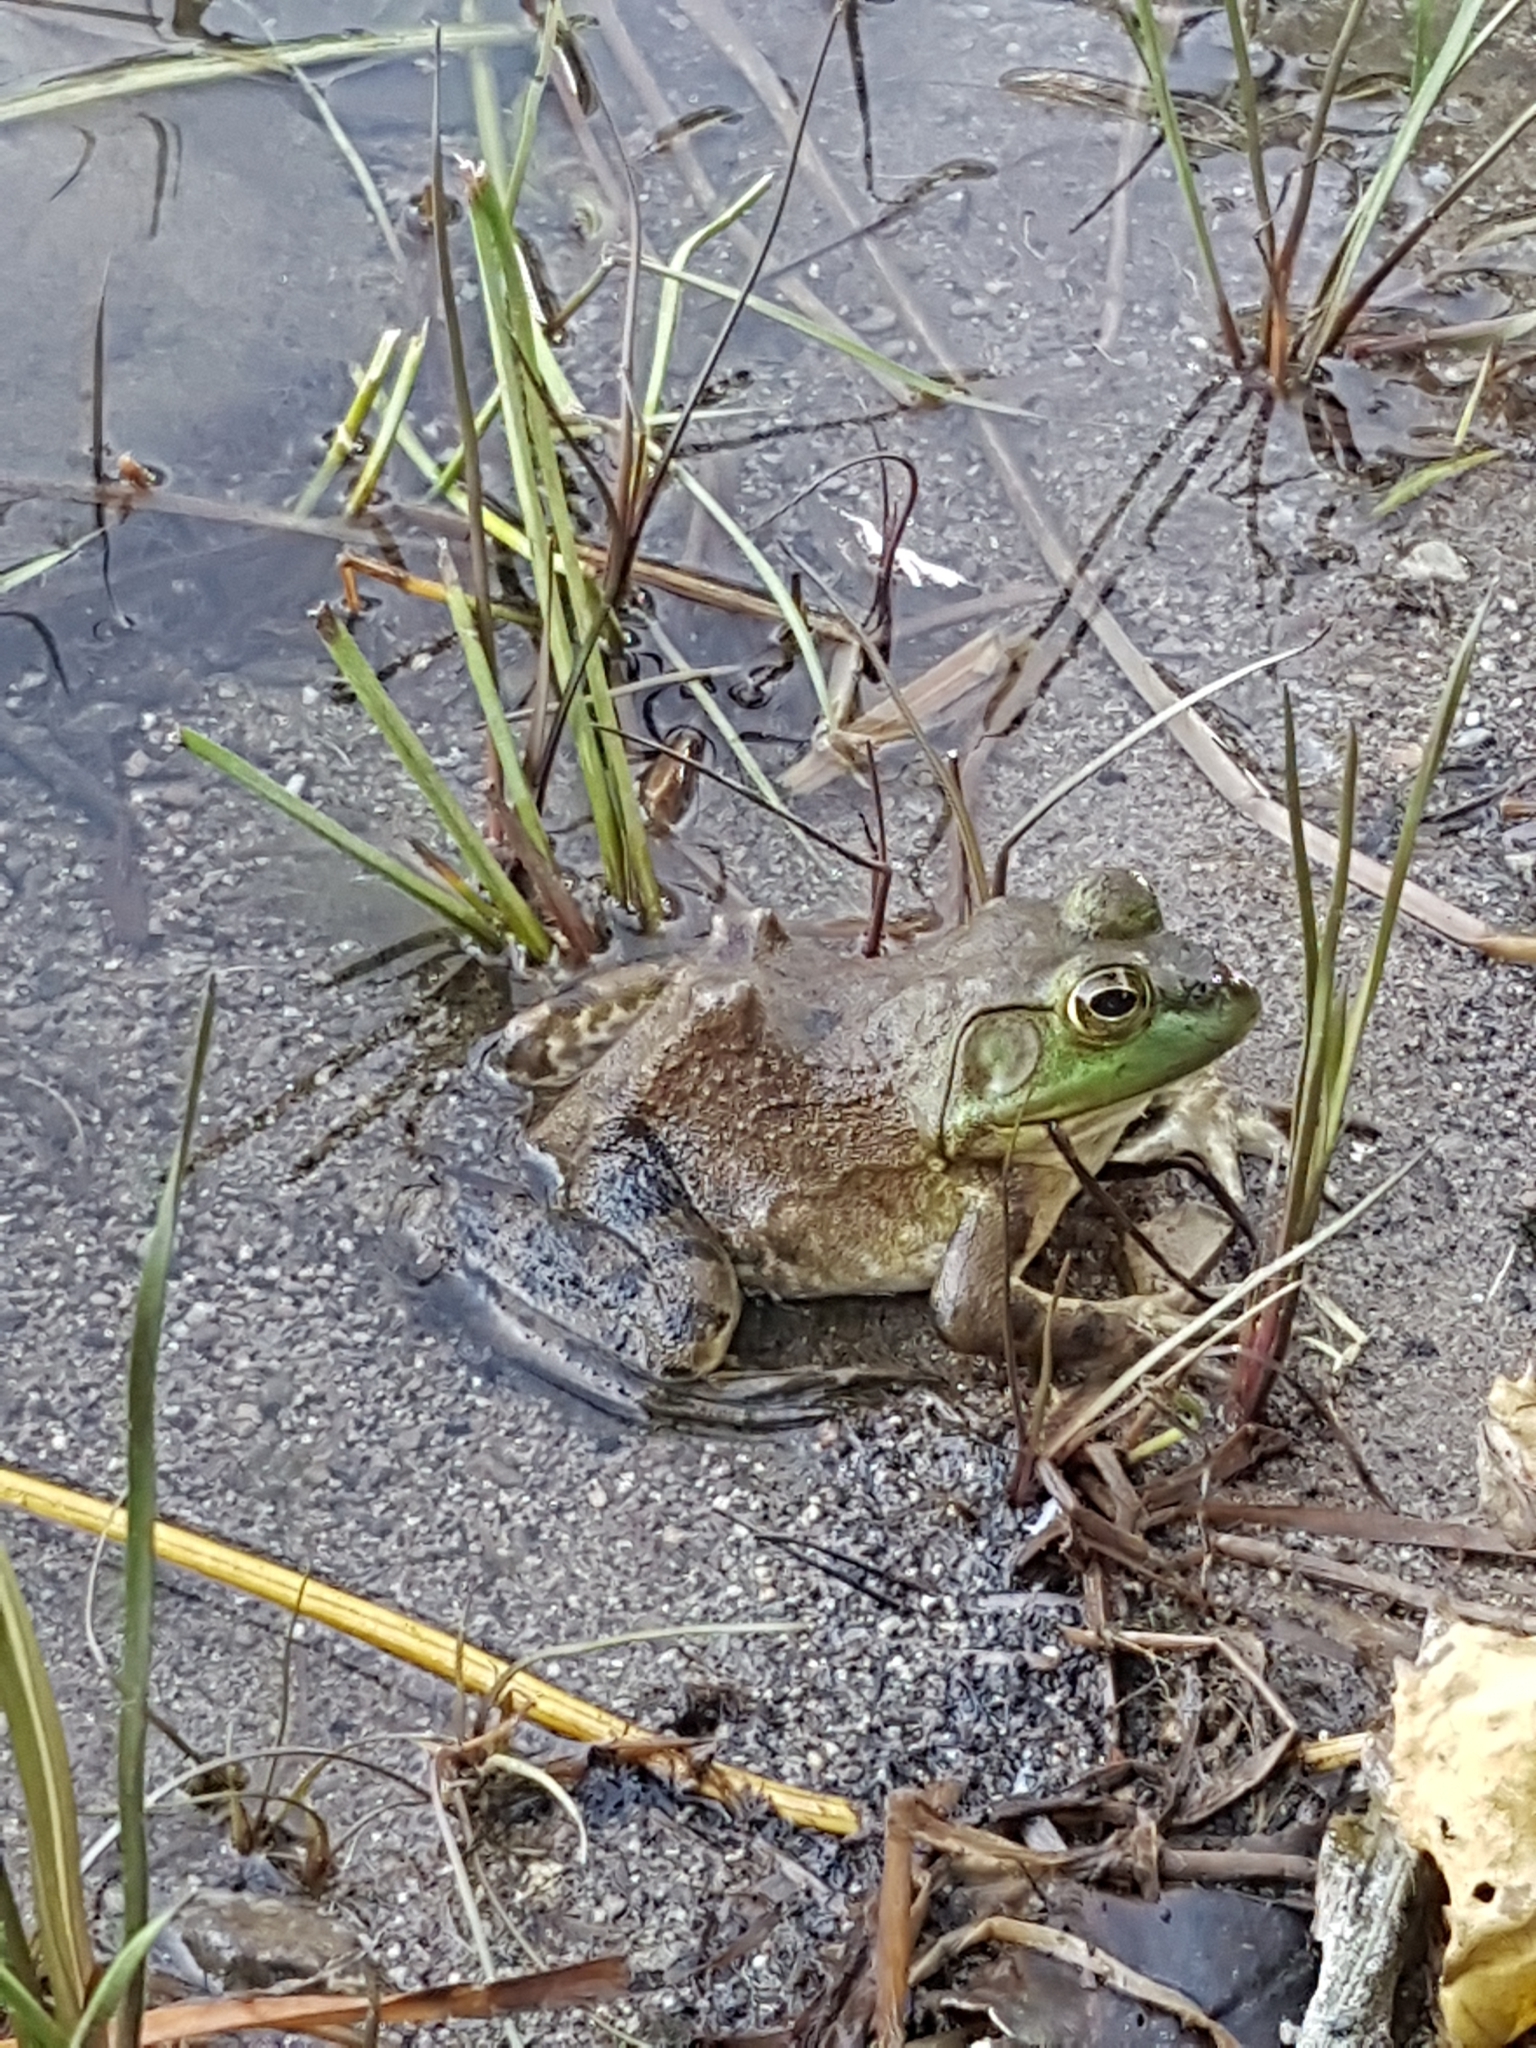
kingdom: Animalia
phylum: Chordata
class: Amphibia
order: Anura
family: Ranidae
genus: Lithobates
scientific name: Lithobates catesbeianus
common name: American bullfrog
